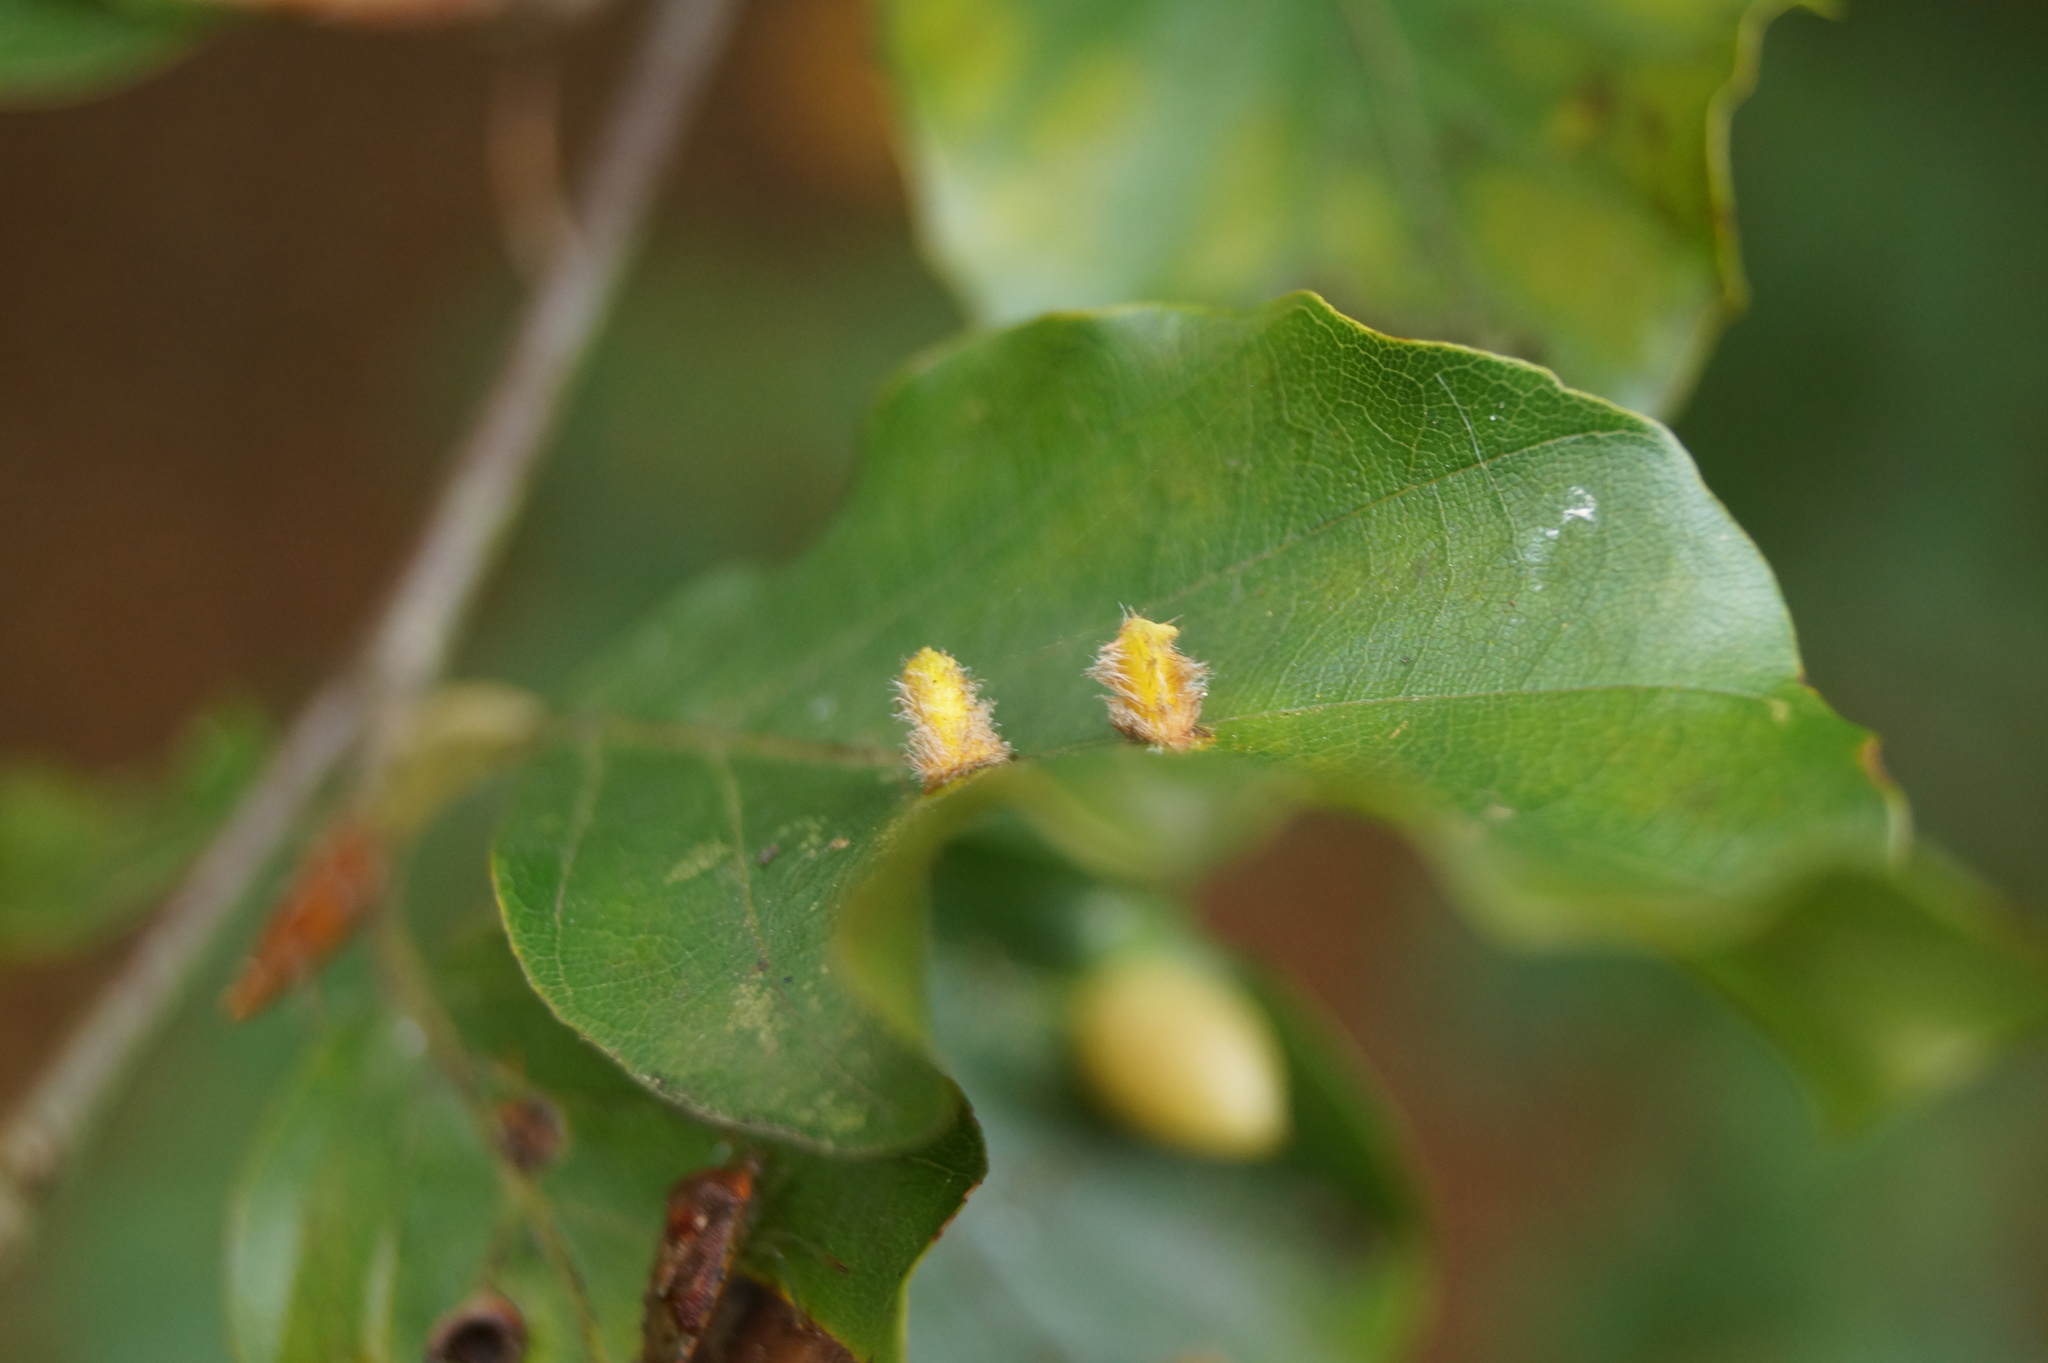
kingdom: Animalia
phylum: Arthropoda
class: Insecta
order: Diptera
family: Cecidomyiidae
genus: Hartigiola
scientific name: Hartigiola annulipes
